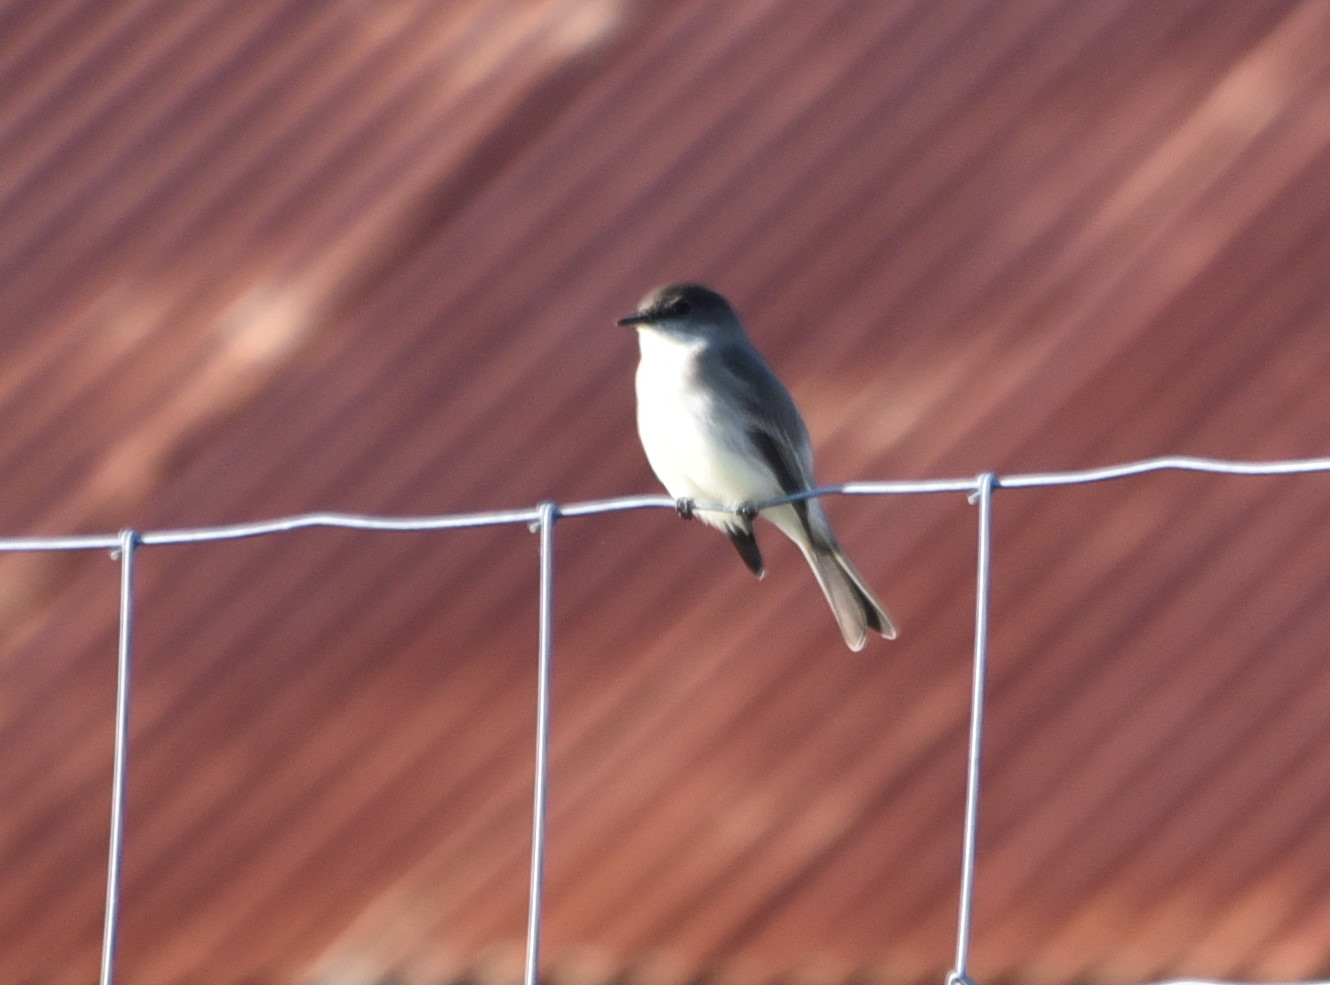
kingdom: Animalia
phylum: Chordata
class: Aves
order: Passeriformes
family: Tyrannidae
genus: Sayornis
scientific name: Sayornis phoebe
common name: Eastern phoebe
